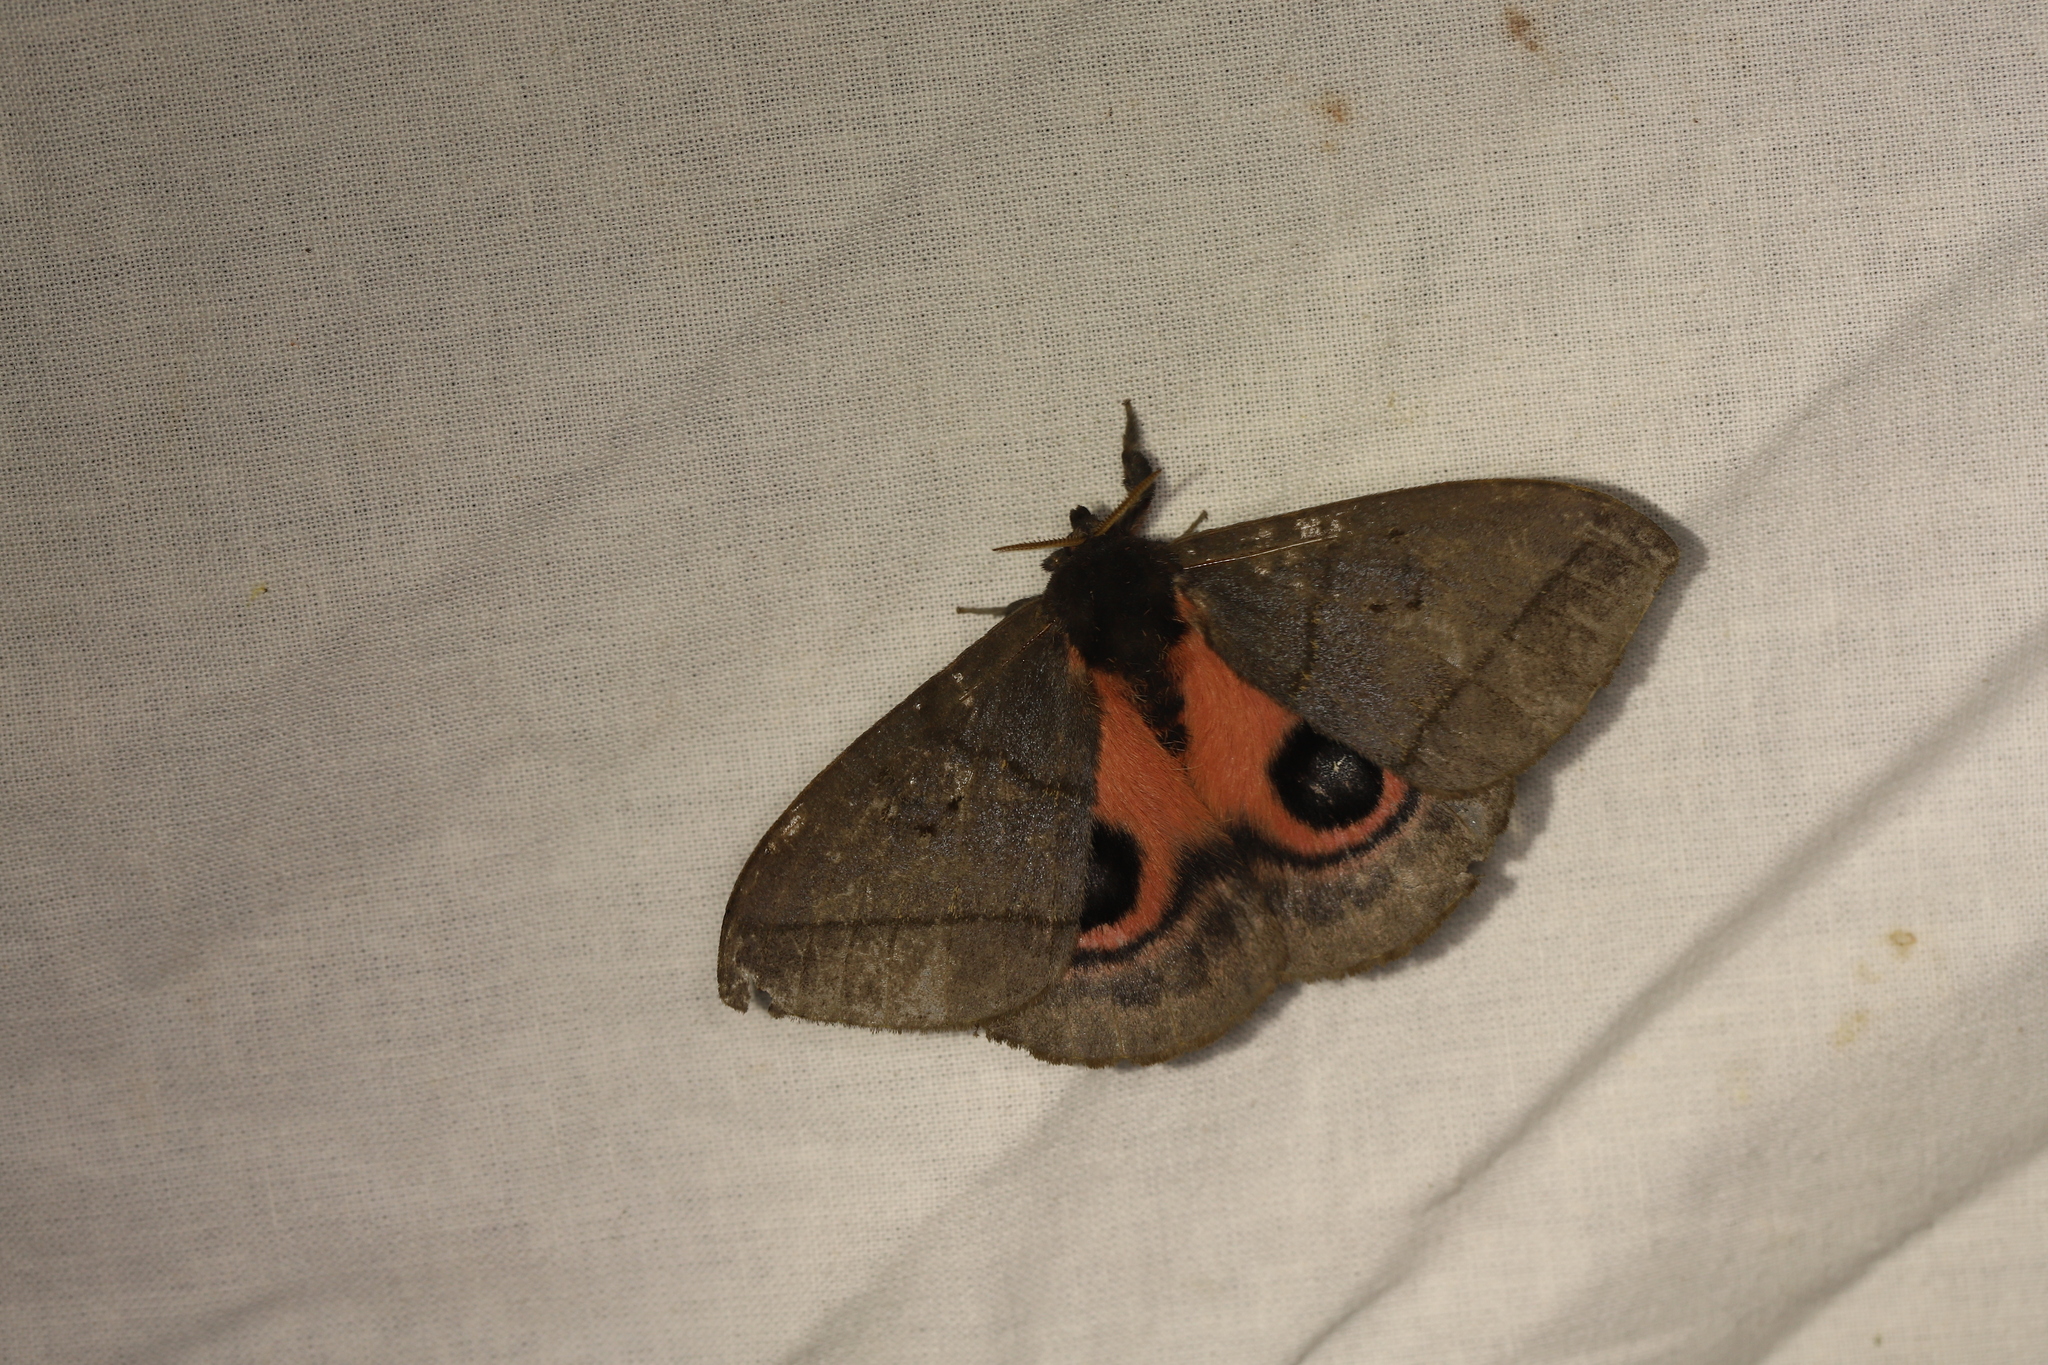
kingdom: Animalia
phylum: Arthropoda
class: Insecta
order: Lepidoptera
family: Saturniidae
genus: Automeris
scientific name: Automeris choco
